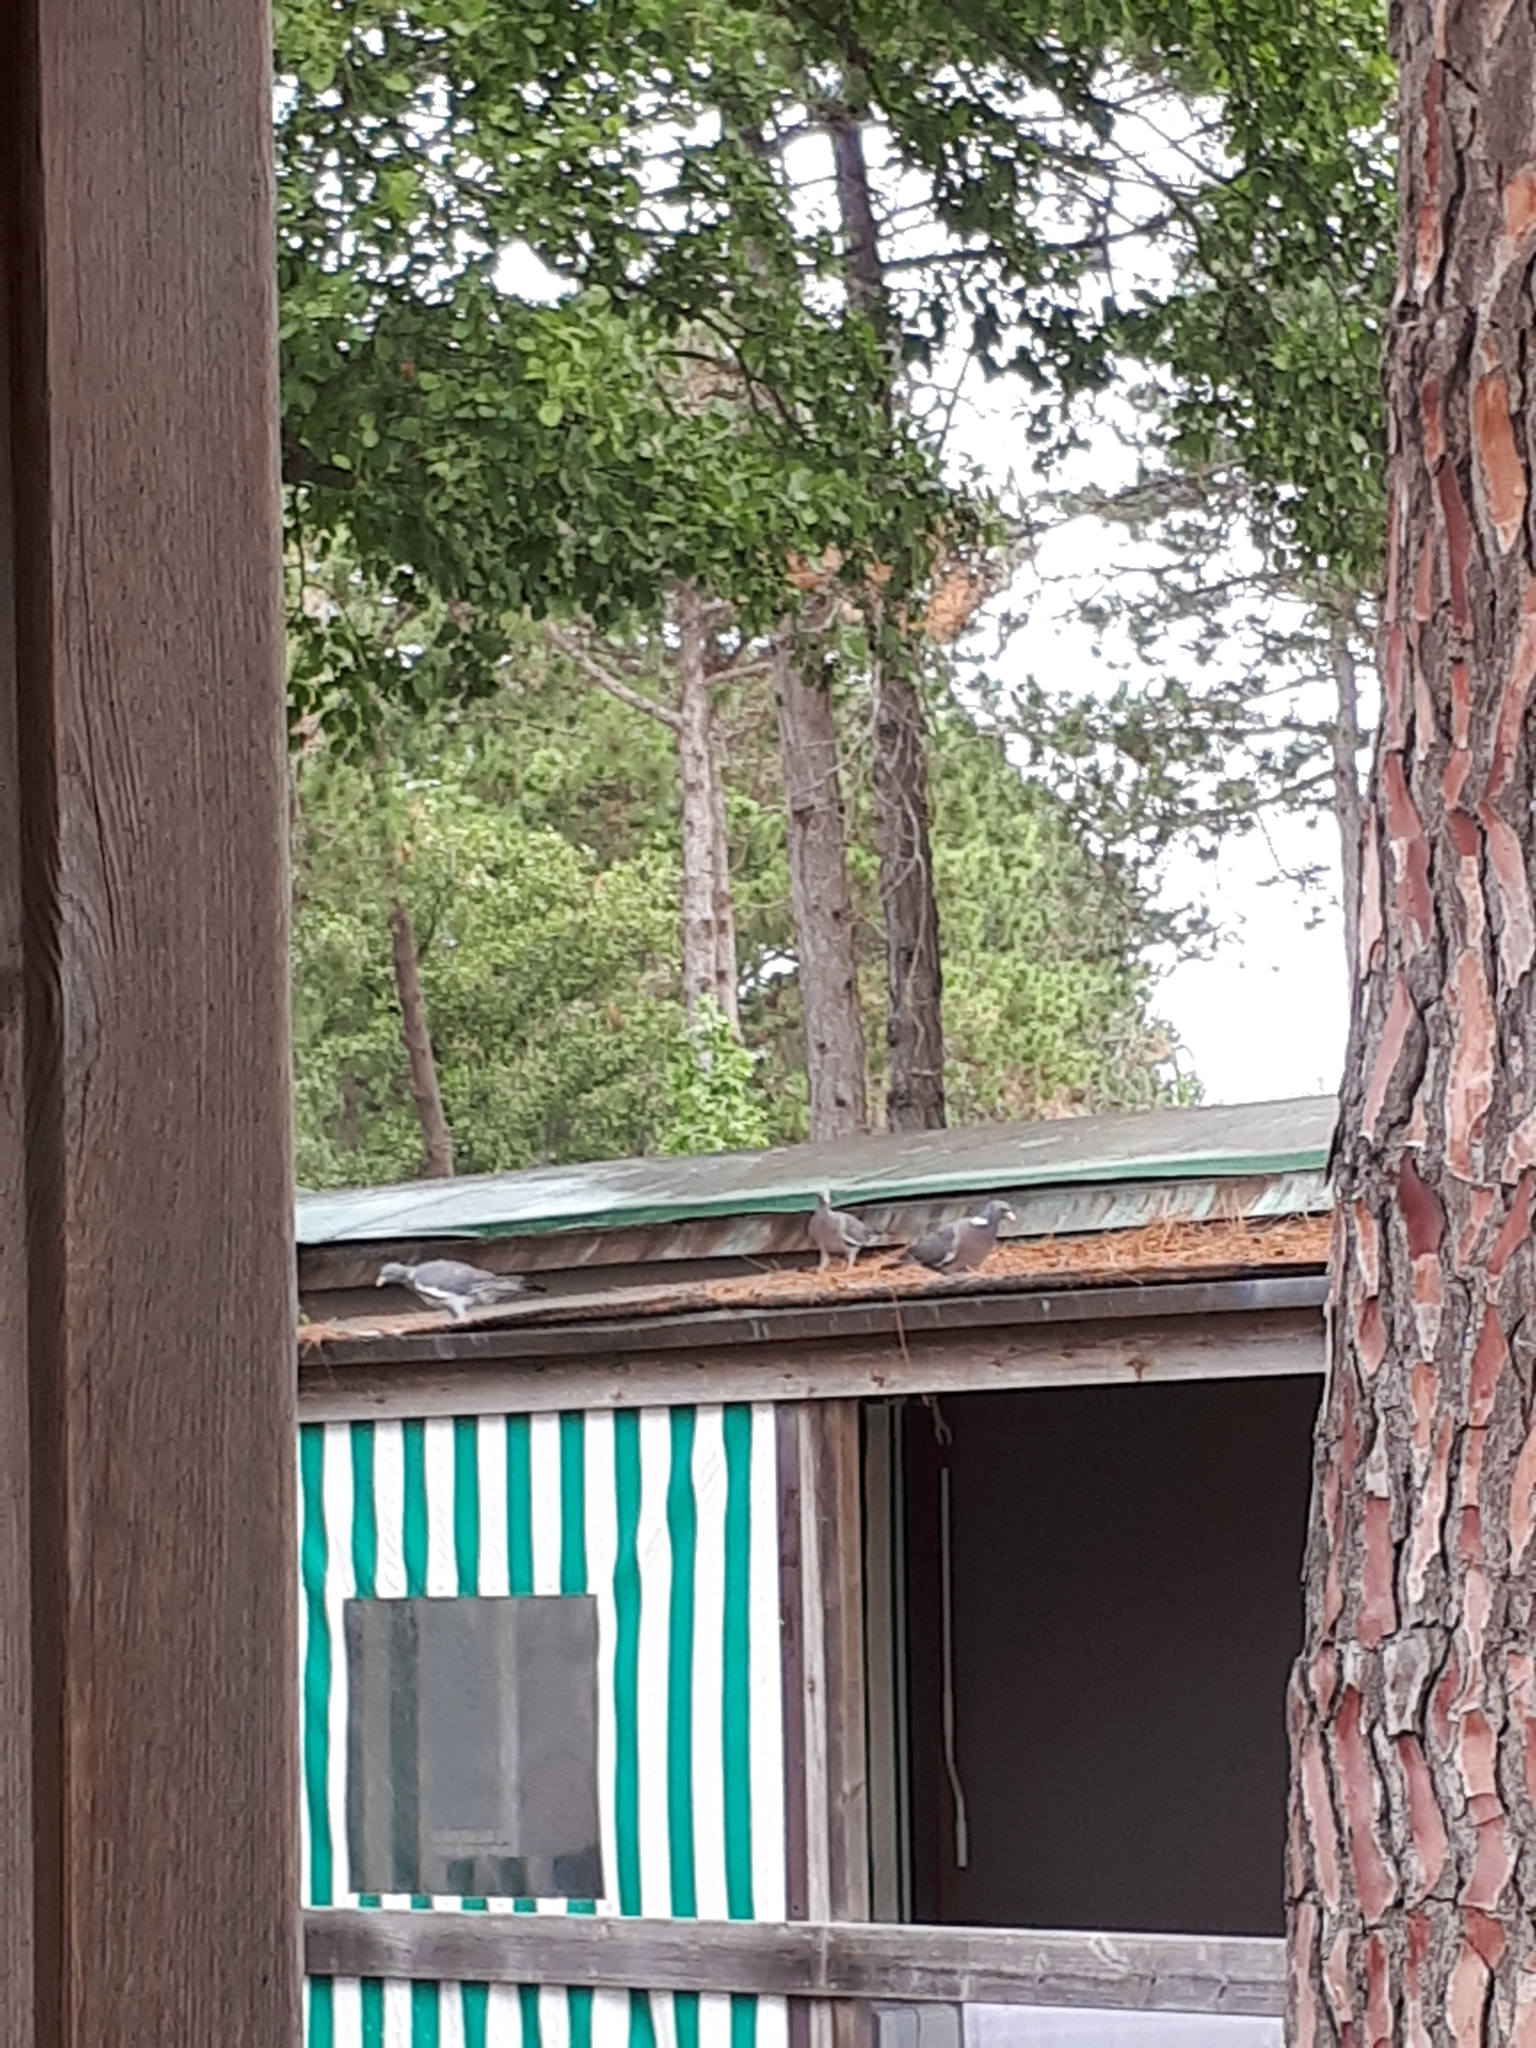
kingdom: Animalia
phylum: Chordata
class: Aves
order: Columbiformes
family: Columbidae
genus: Columba
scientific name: Columba palumbus
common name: Common wood pigeon
